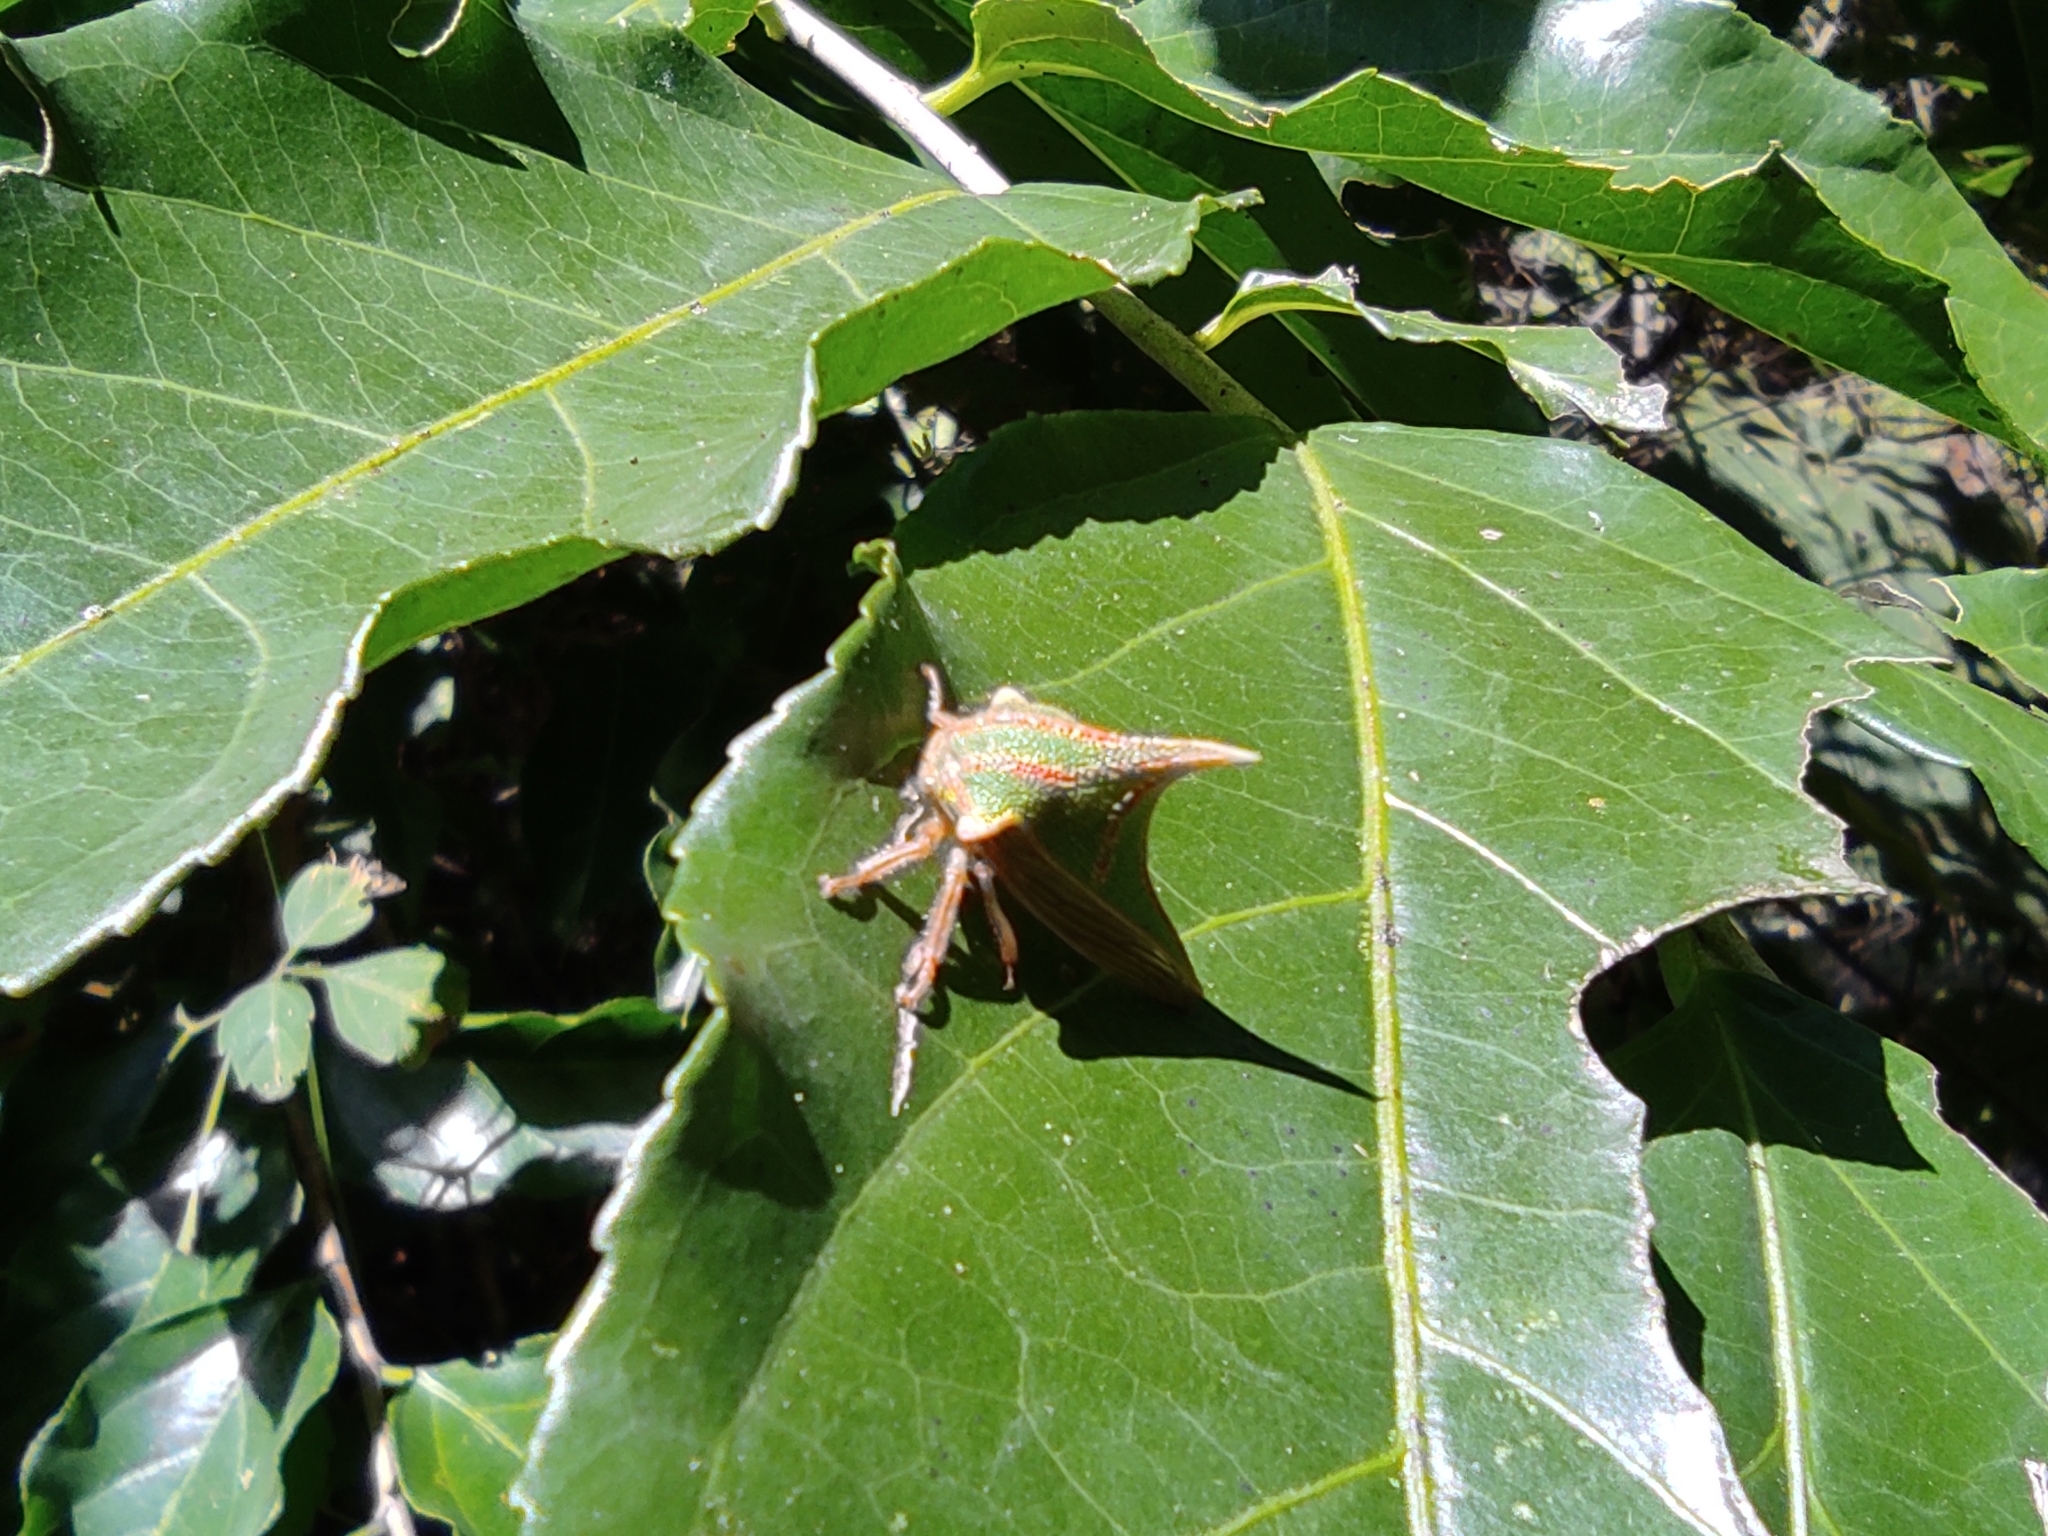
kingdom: Animalia
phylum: Arthropoda
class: Insecta
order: Hemiptera
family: Membracidae
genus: Umbonia
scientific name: Umbonia spinosa
